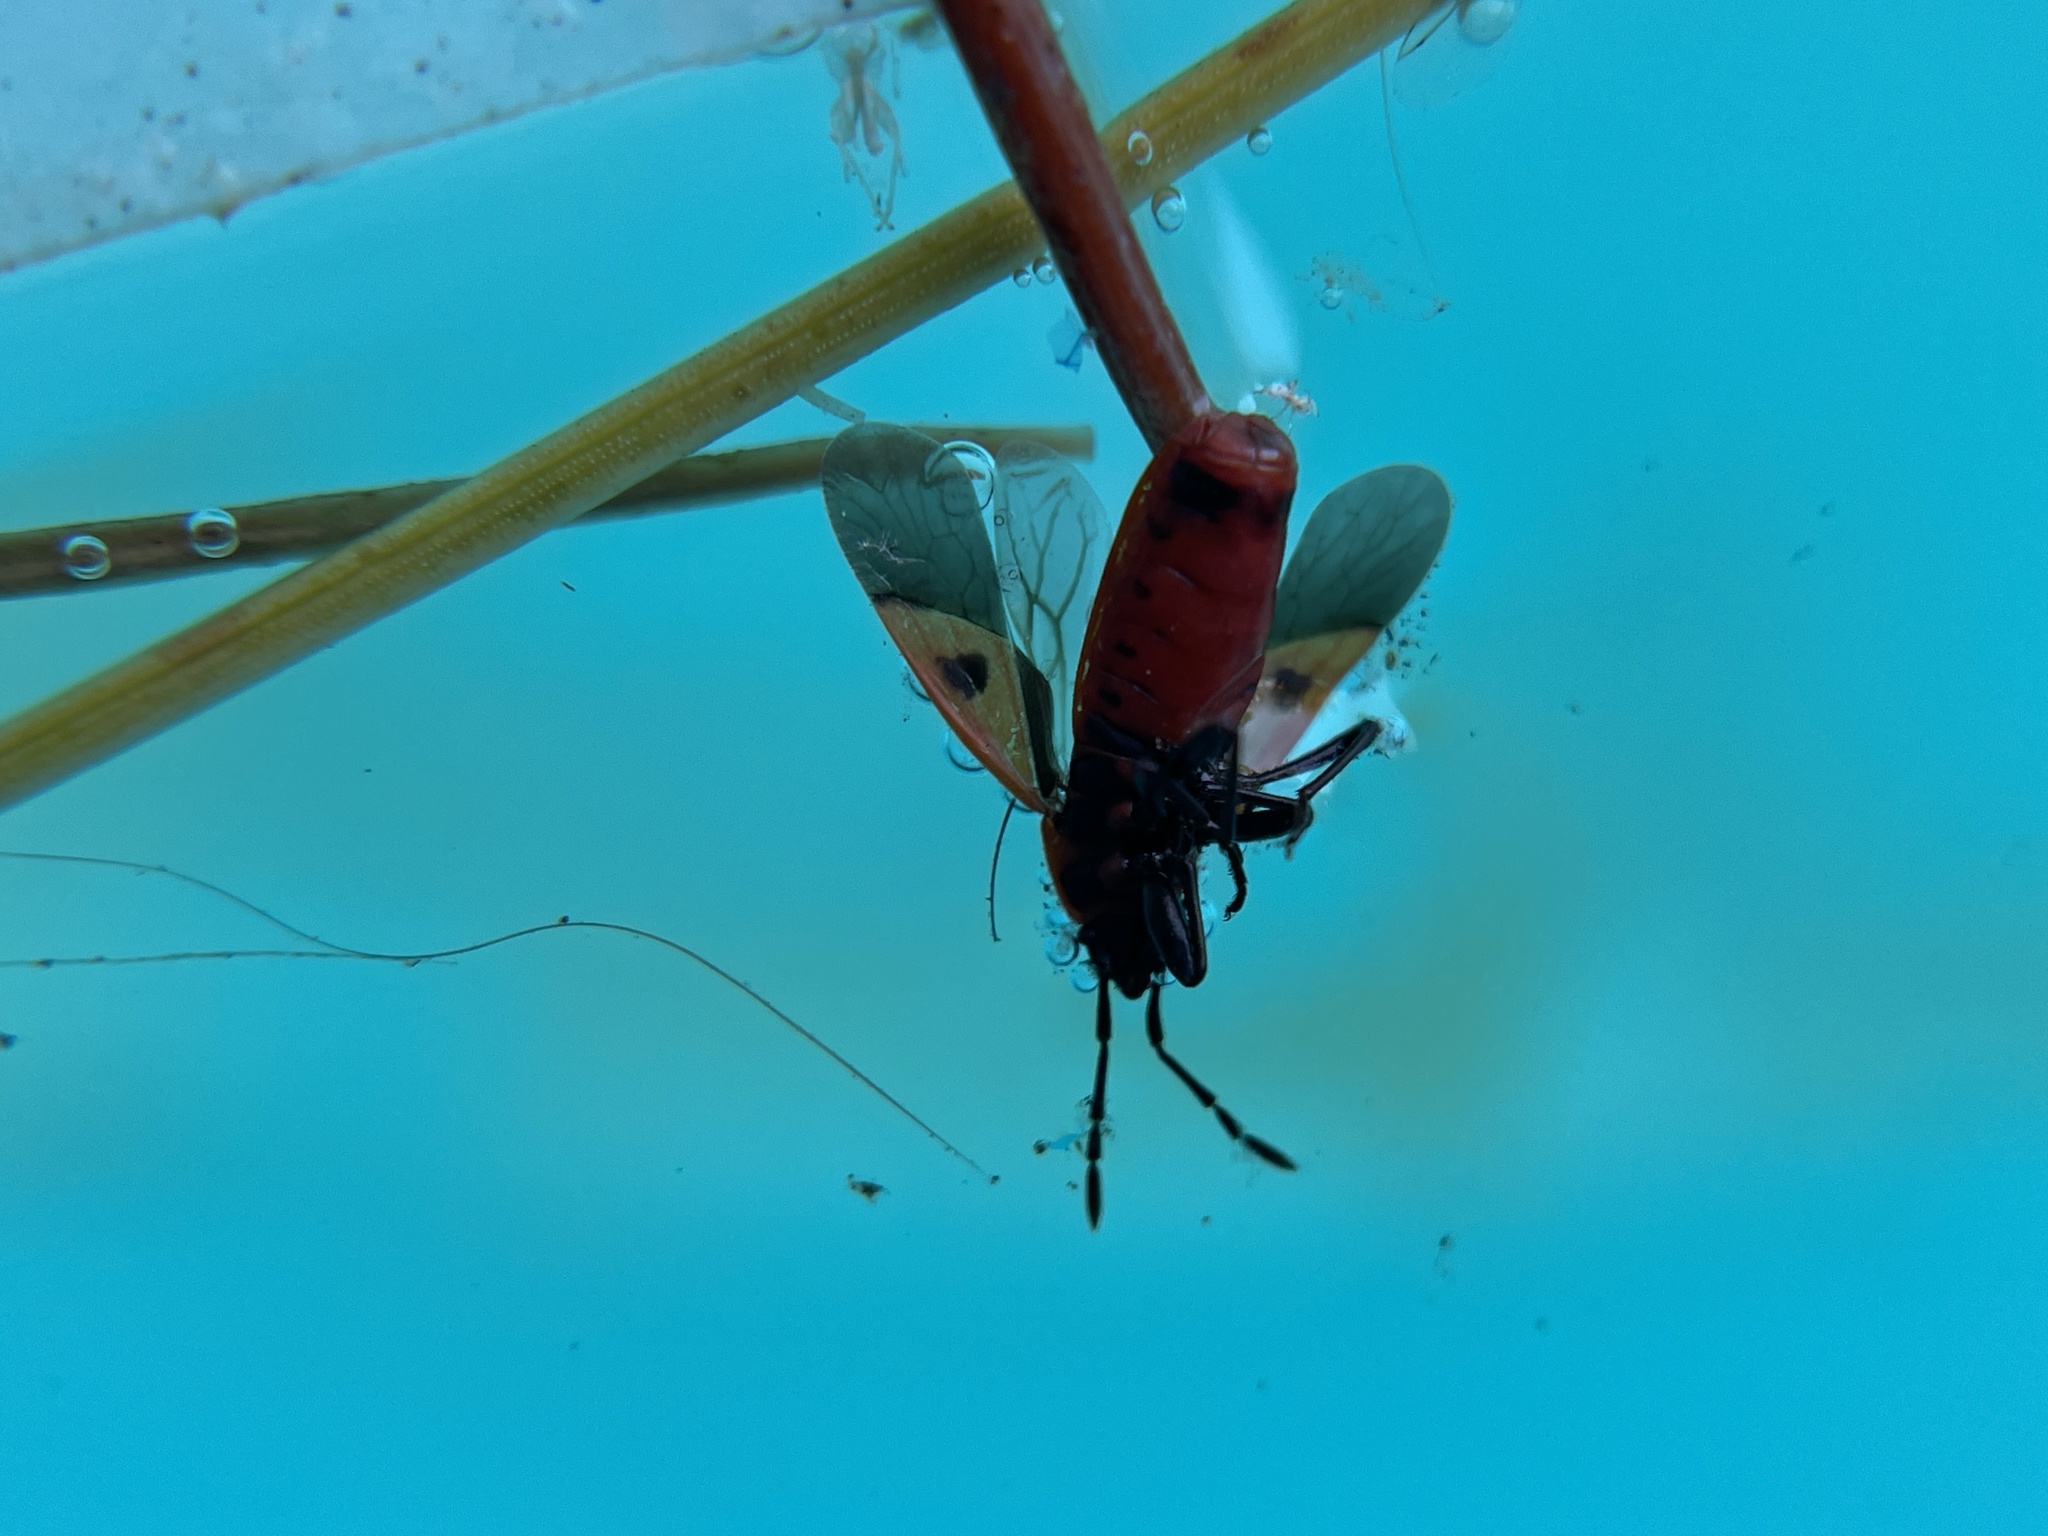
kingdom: Animalia
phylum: Arthropoda
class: Insecta
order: Hemiptera
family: Pyrrhocoridae
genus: Scantius
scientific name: Scantius aegyptius
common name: Red bug
